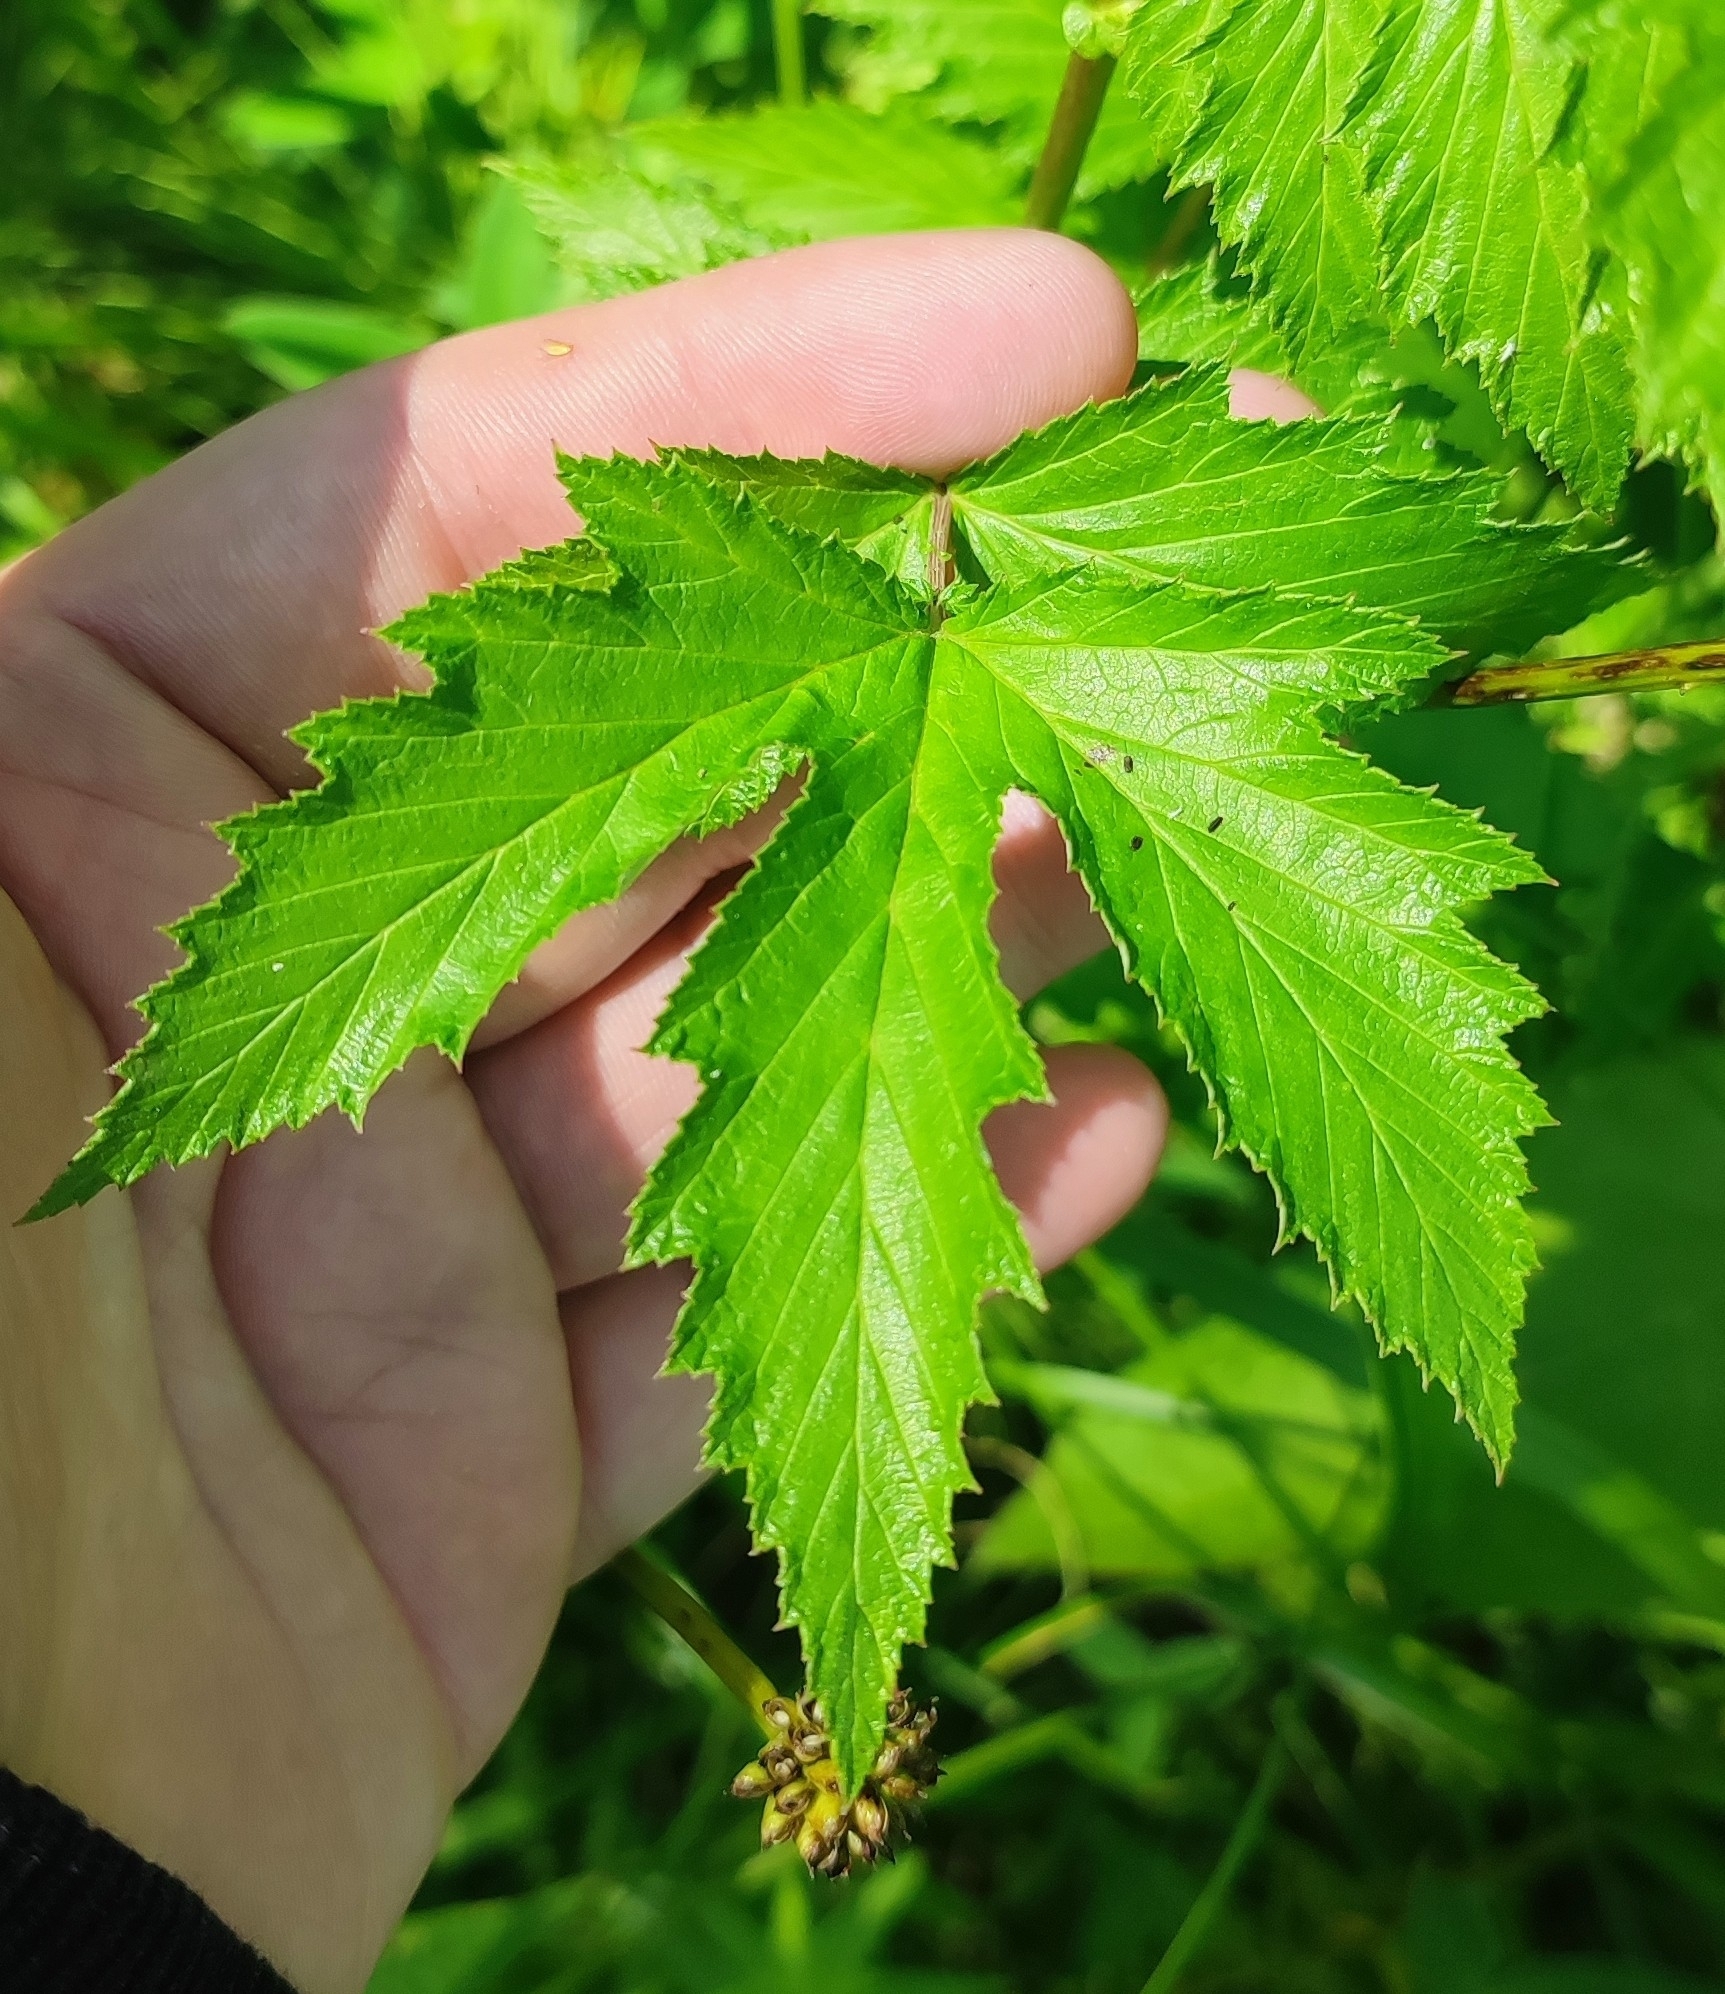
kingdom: Plantae
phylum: Tracheophyta
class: Magnoliopsida
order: Rosales
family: Rosaceae
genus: Filipendula
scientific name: Filipendula ulmaria
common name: Meadowsweet
